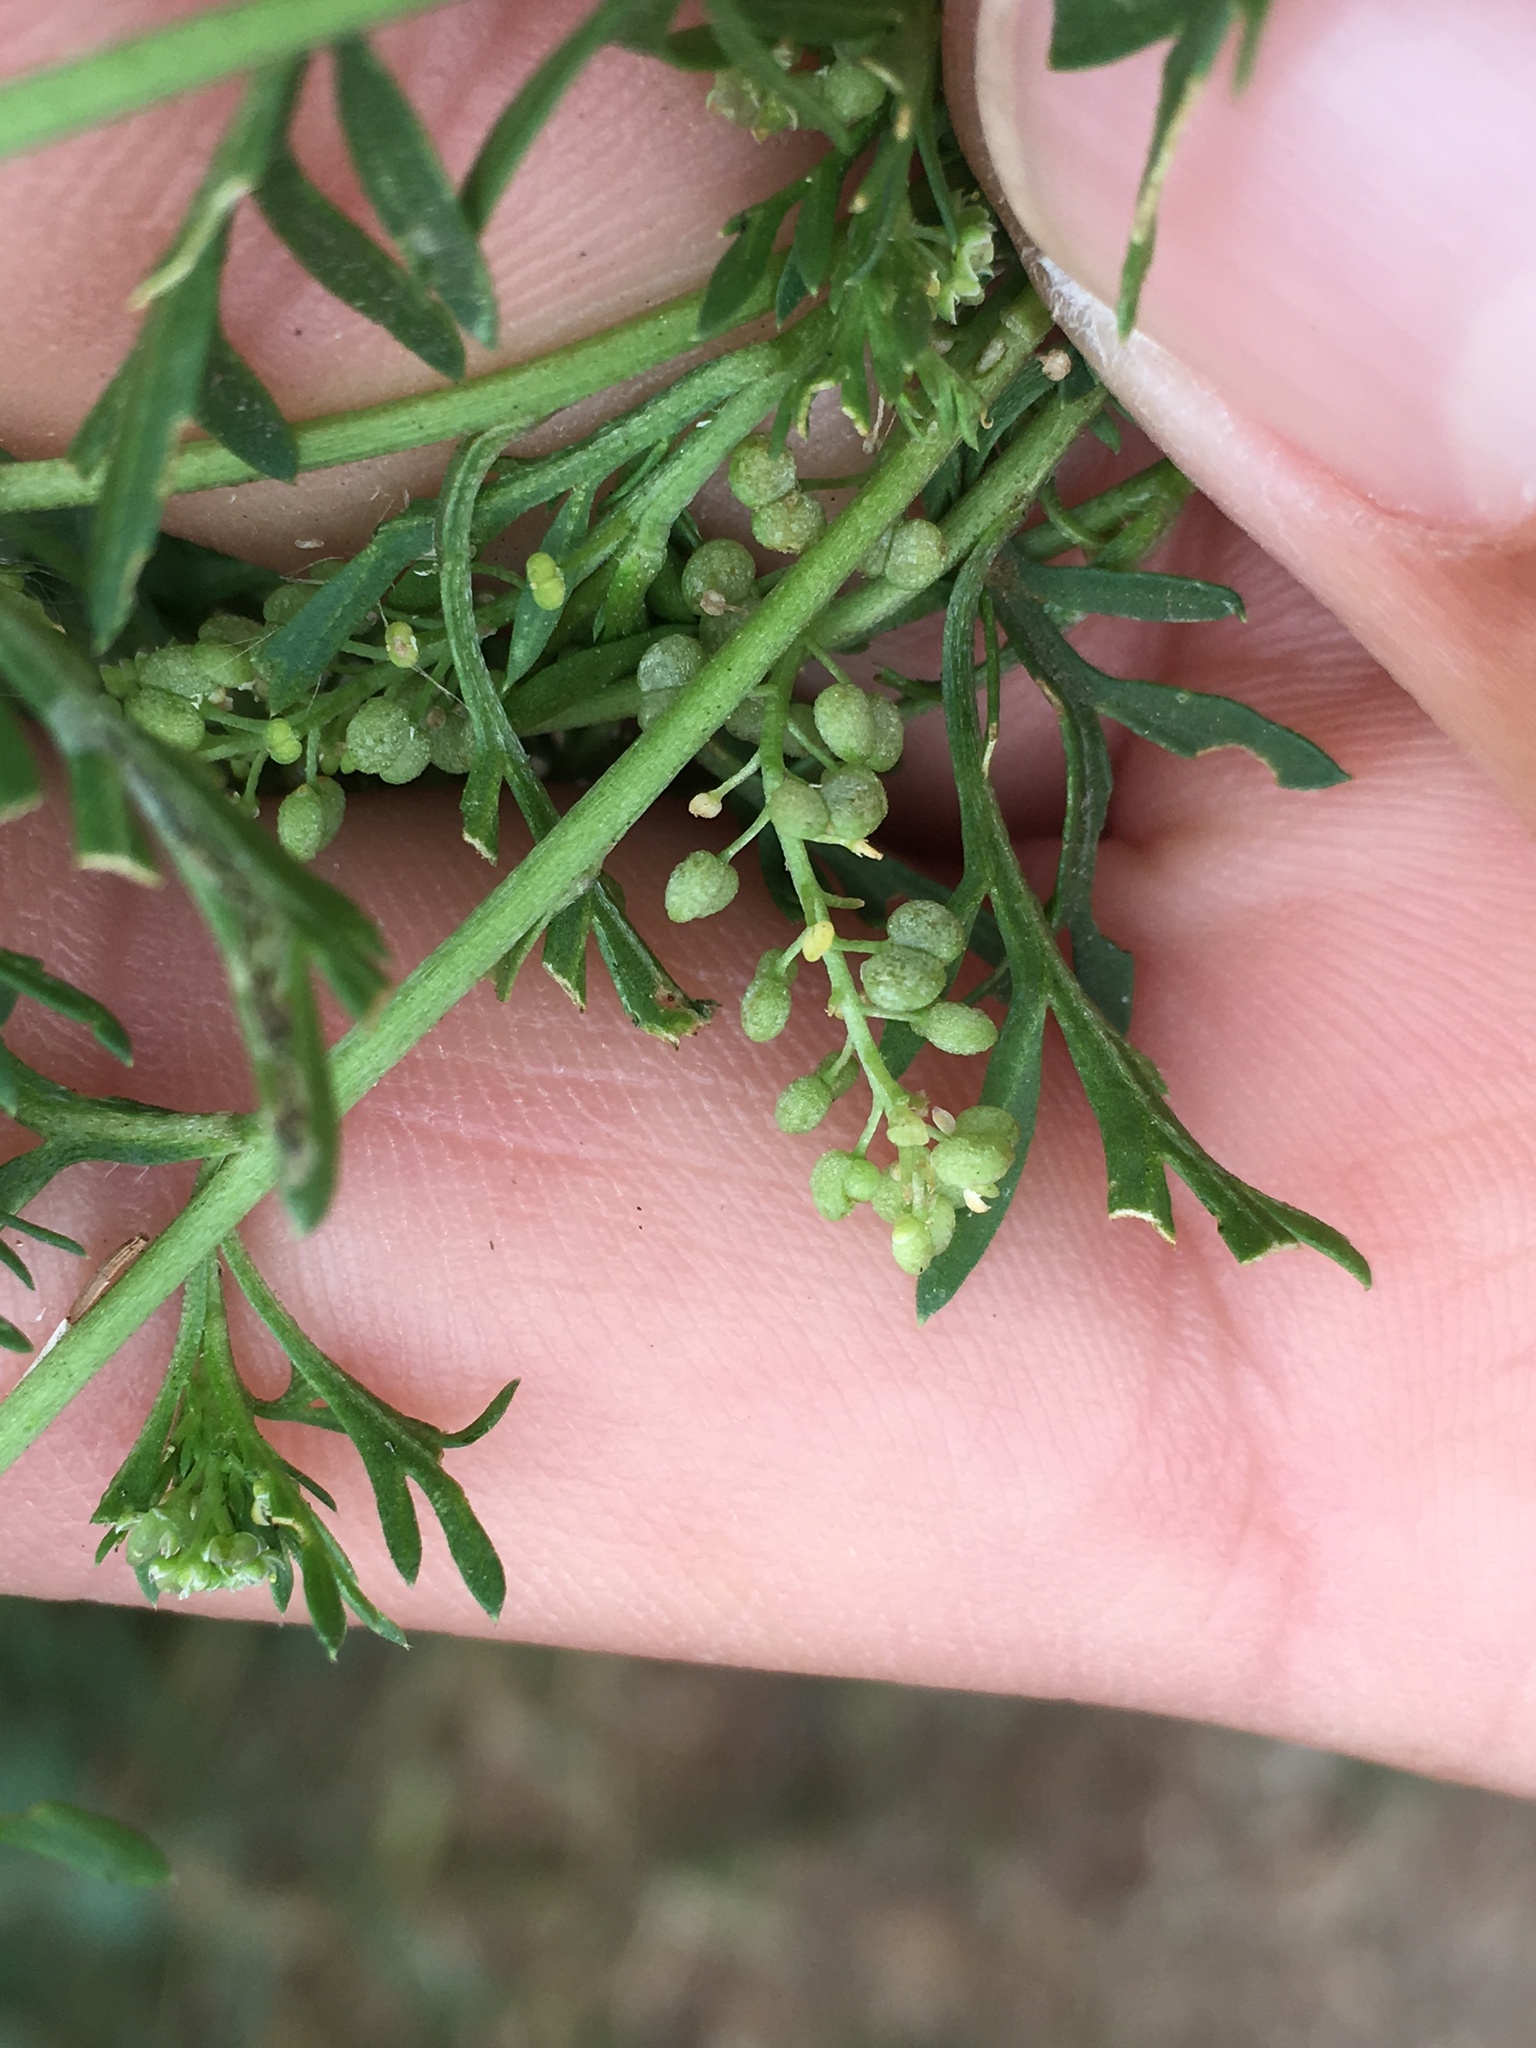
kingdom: Plantae
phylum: Tracheophyta
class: Magnoliopsida
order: Brassicales
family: Brassicaceae
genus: Lepidium
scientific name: Lepidium didymum
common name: Lesser swinecress
